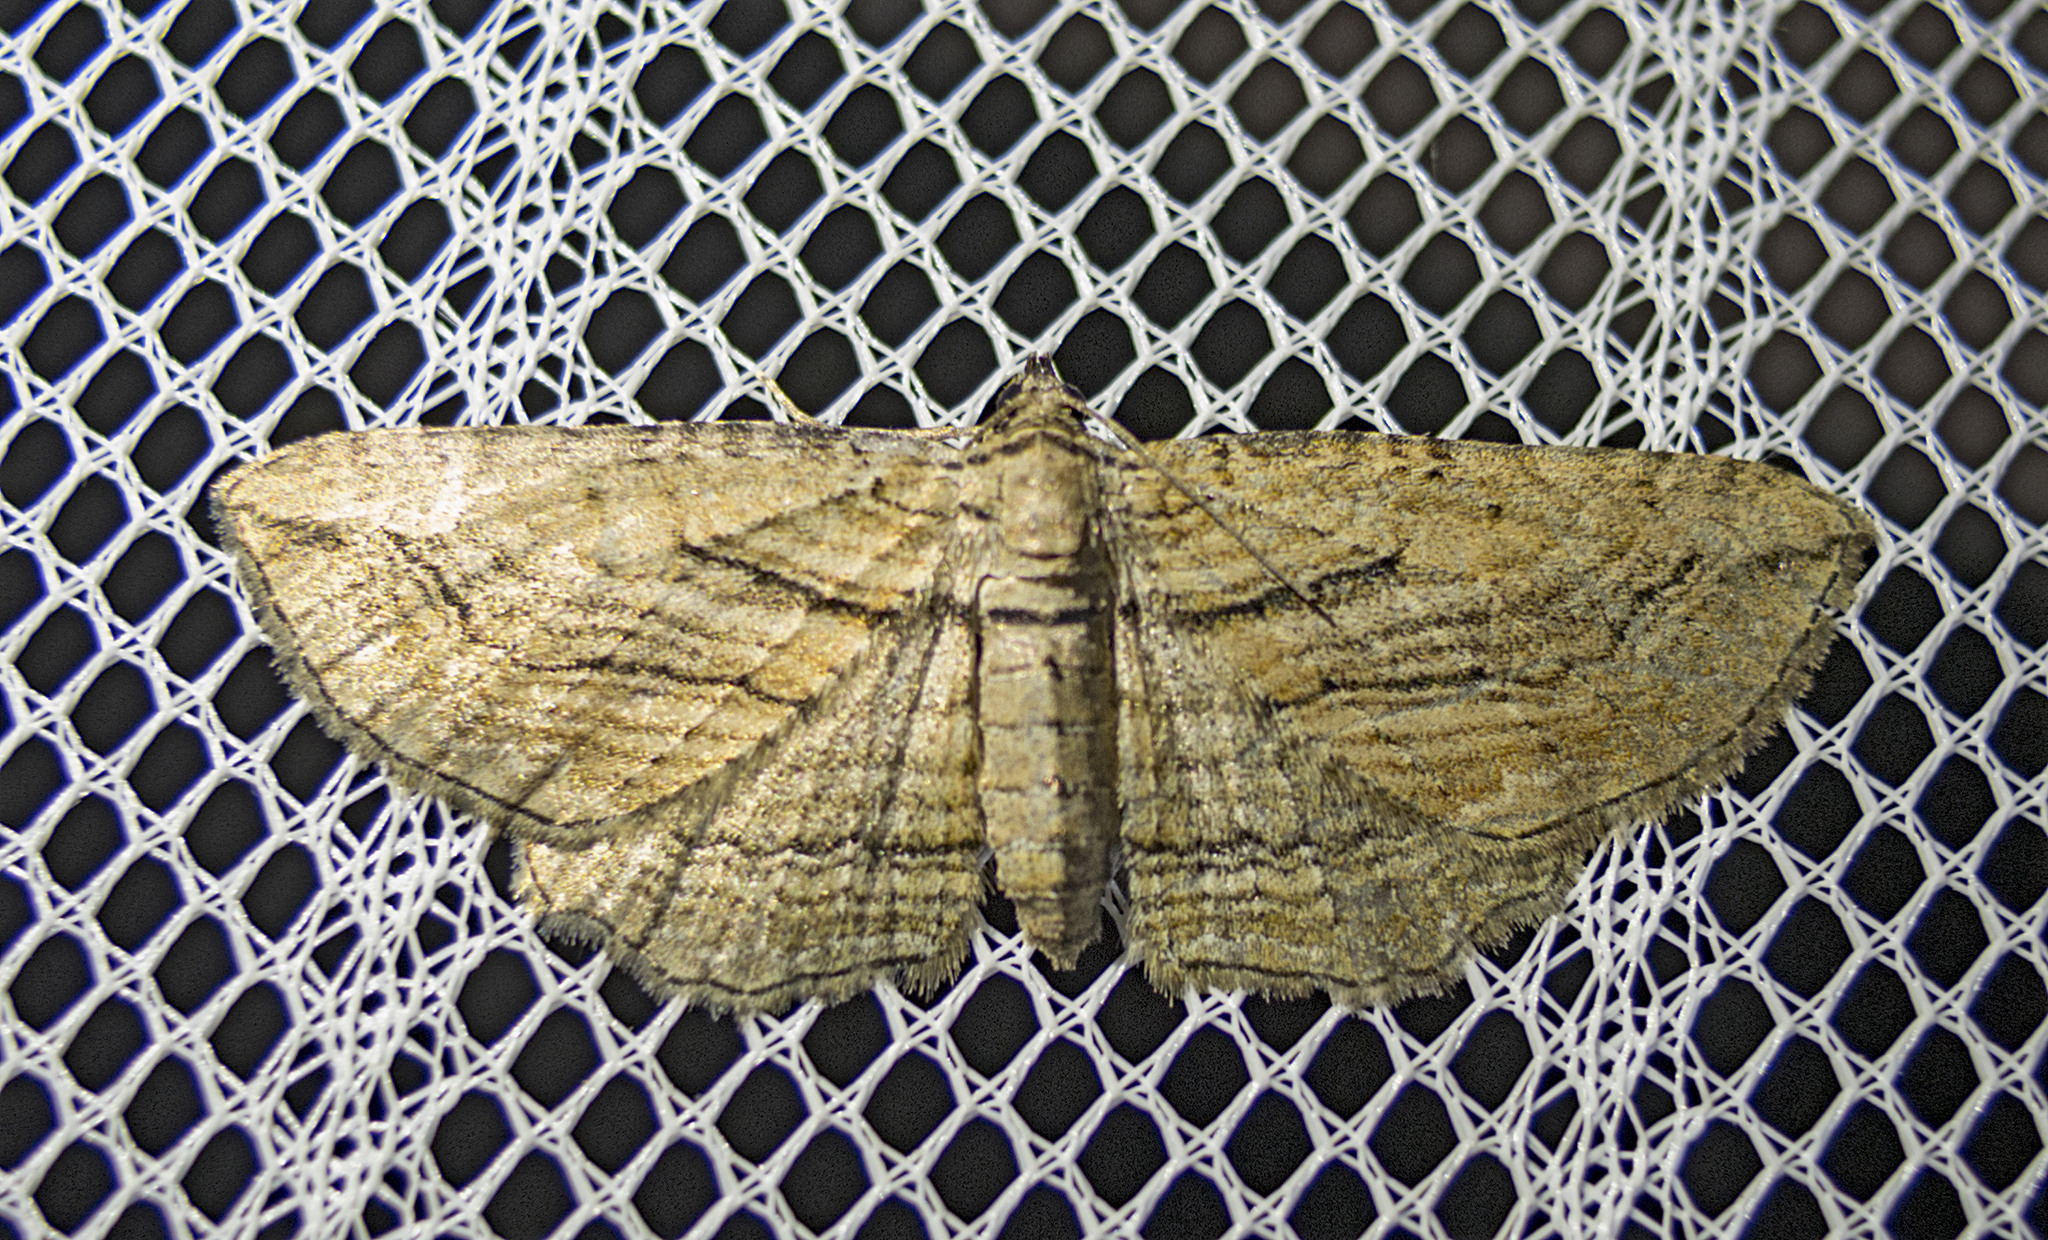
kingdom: Animalia
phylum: Arthropoda
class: Insecta
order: Lepidoptera
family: Geometridae
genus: Horisme
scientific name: Horisme tersata
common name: Fern
